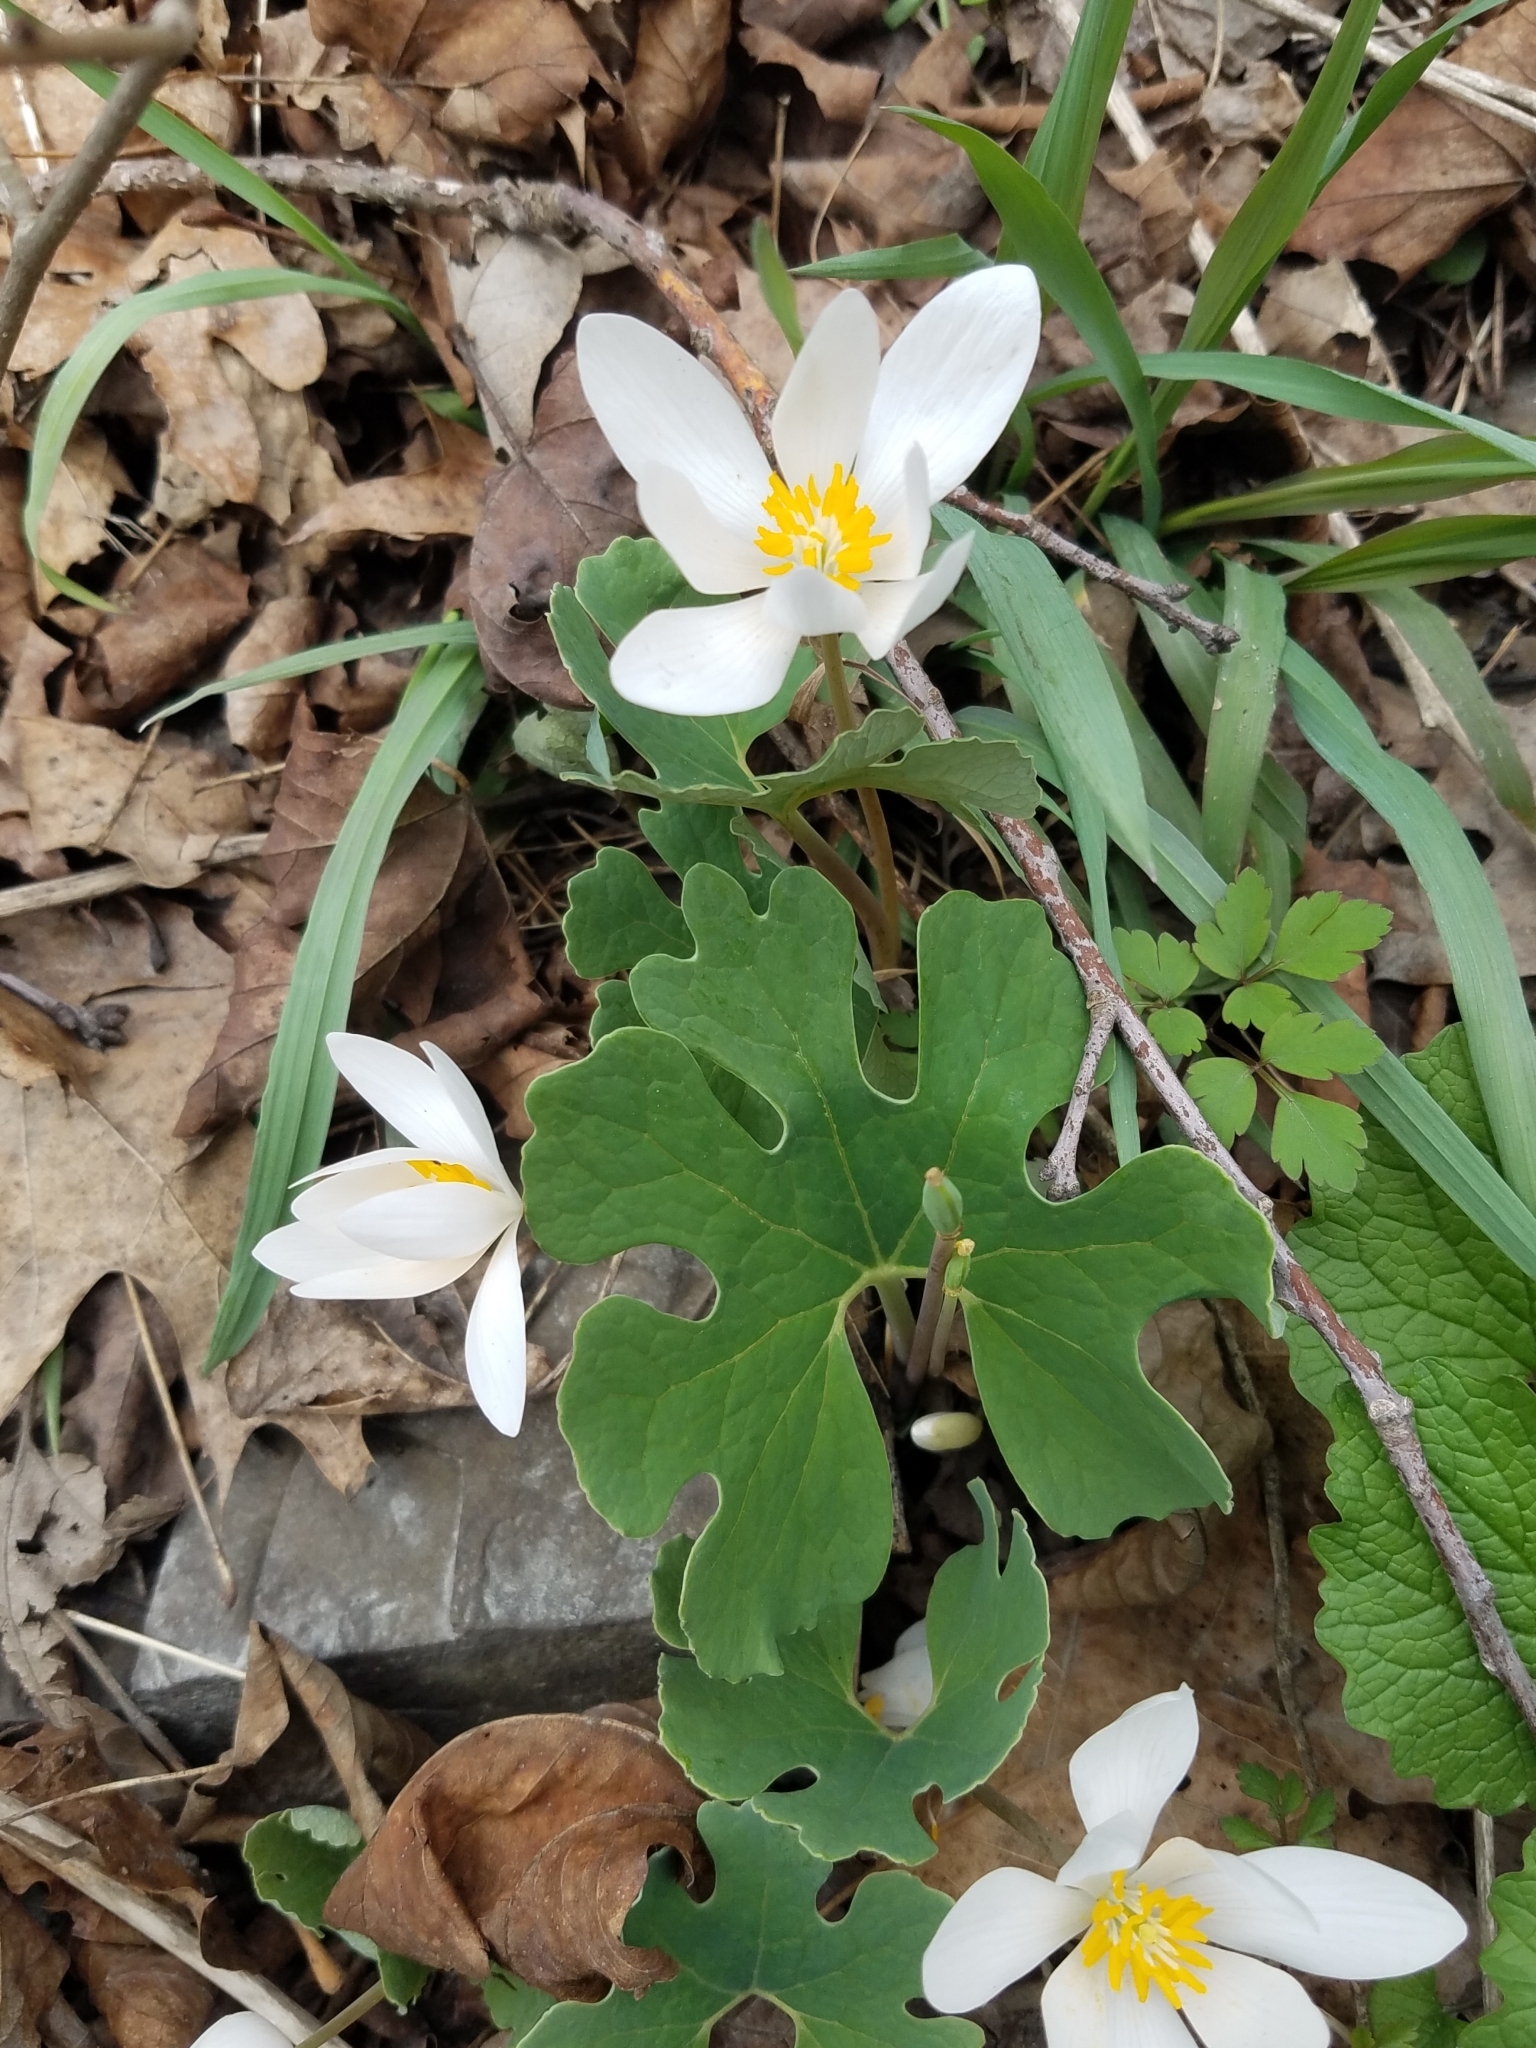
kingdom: Plantae
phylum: Tracheophyta
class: Magnoliopsida
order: Ranunculales
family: Papaveraceae
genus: Sanguinaria
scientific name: Sanguinaria canadensis
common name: Bloodroot
